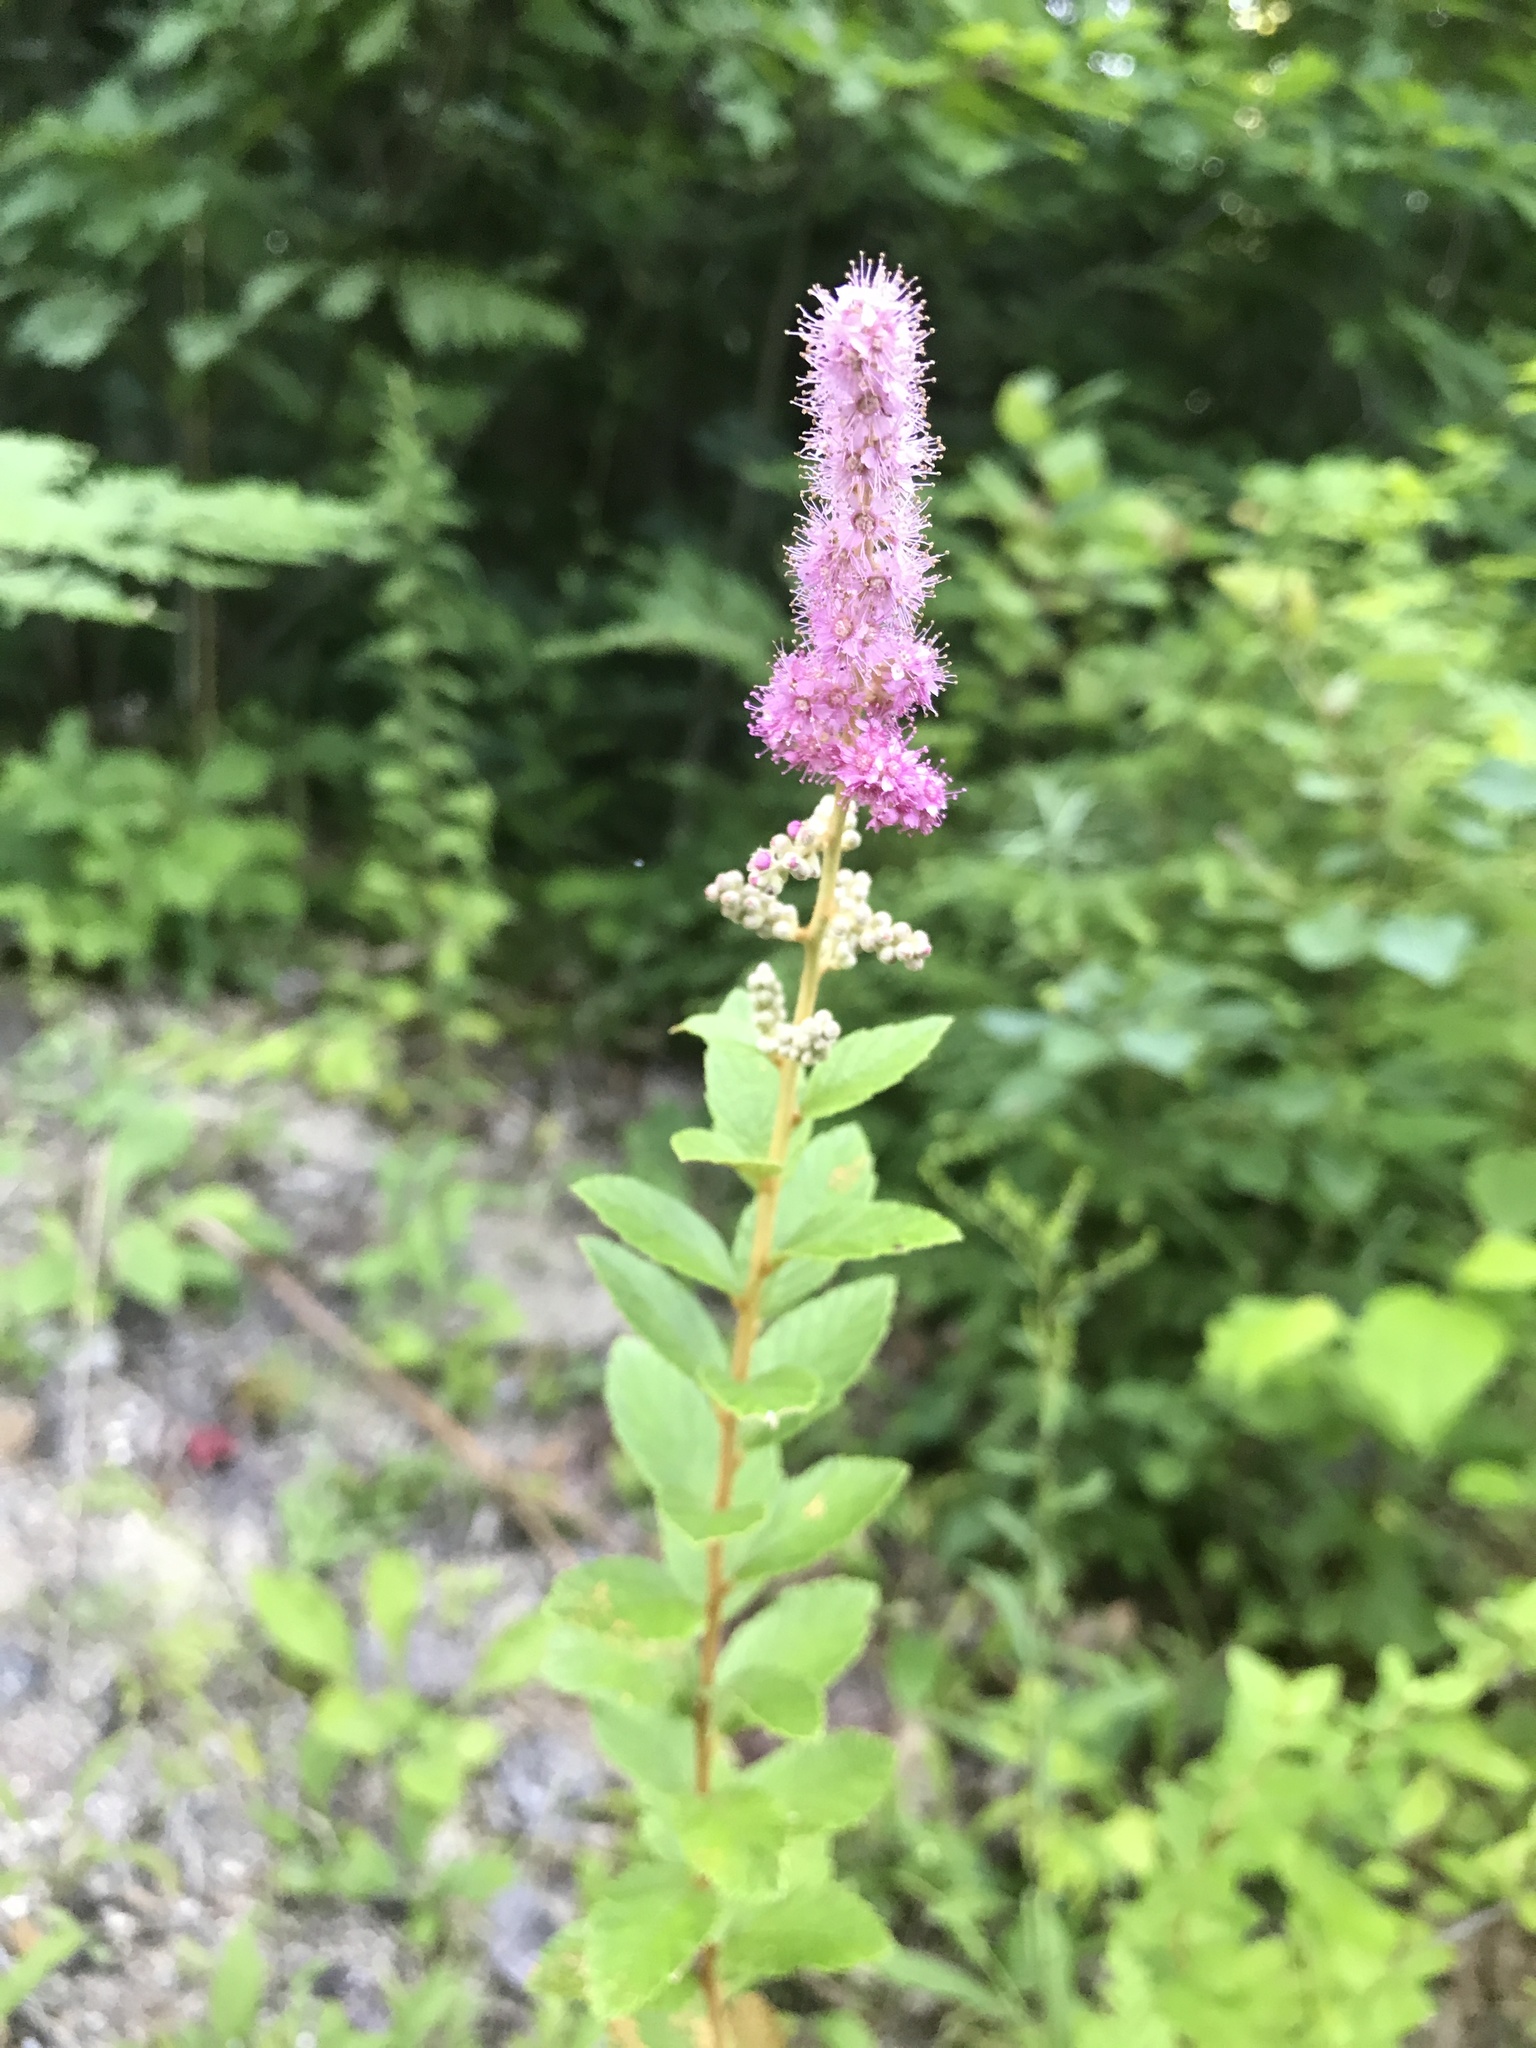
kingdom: Plantae
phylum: Tracheophyta
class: Magnoliopsida
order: Rosales
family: Rosaceae
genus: Spiraea
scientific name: Spiraea tomentosa
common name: Hardhack
